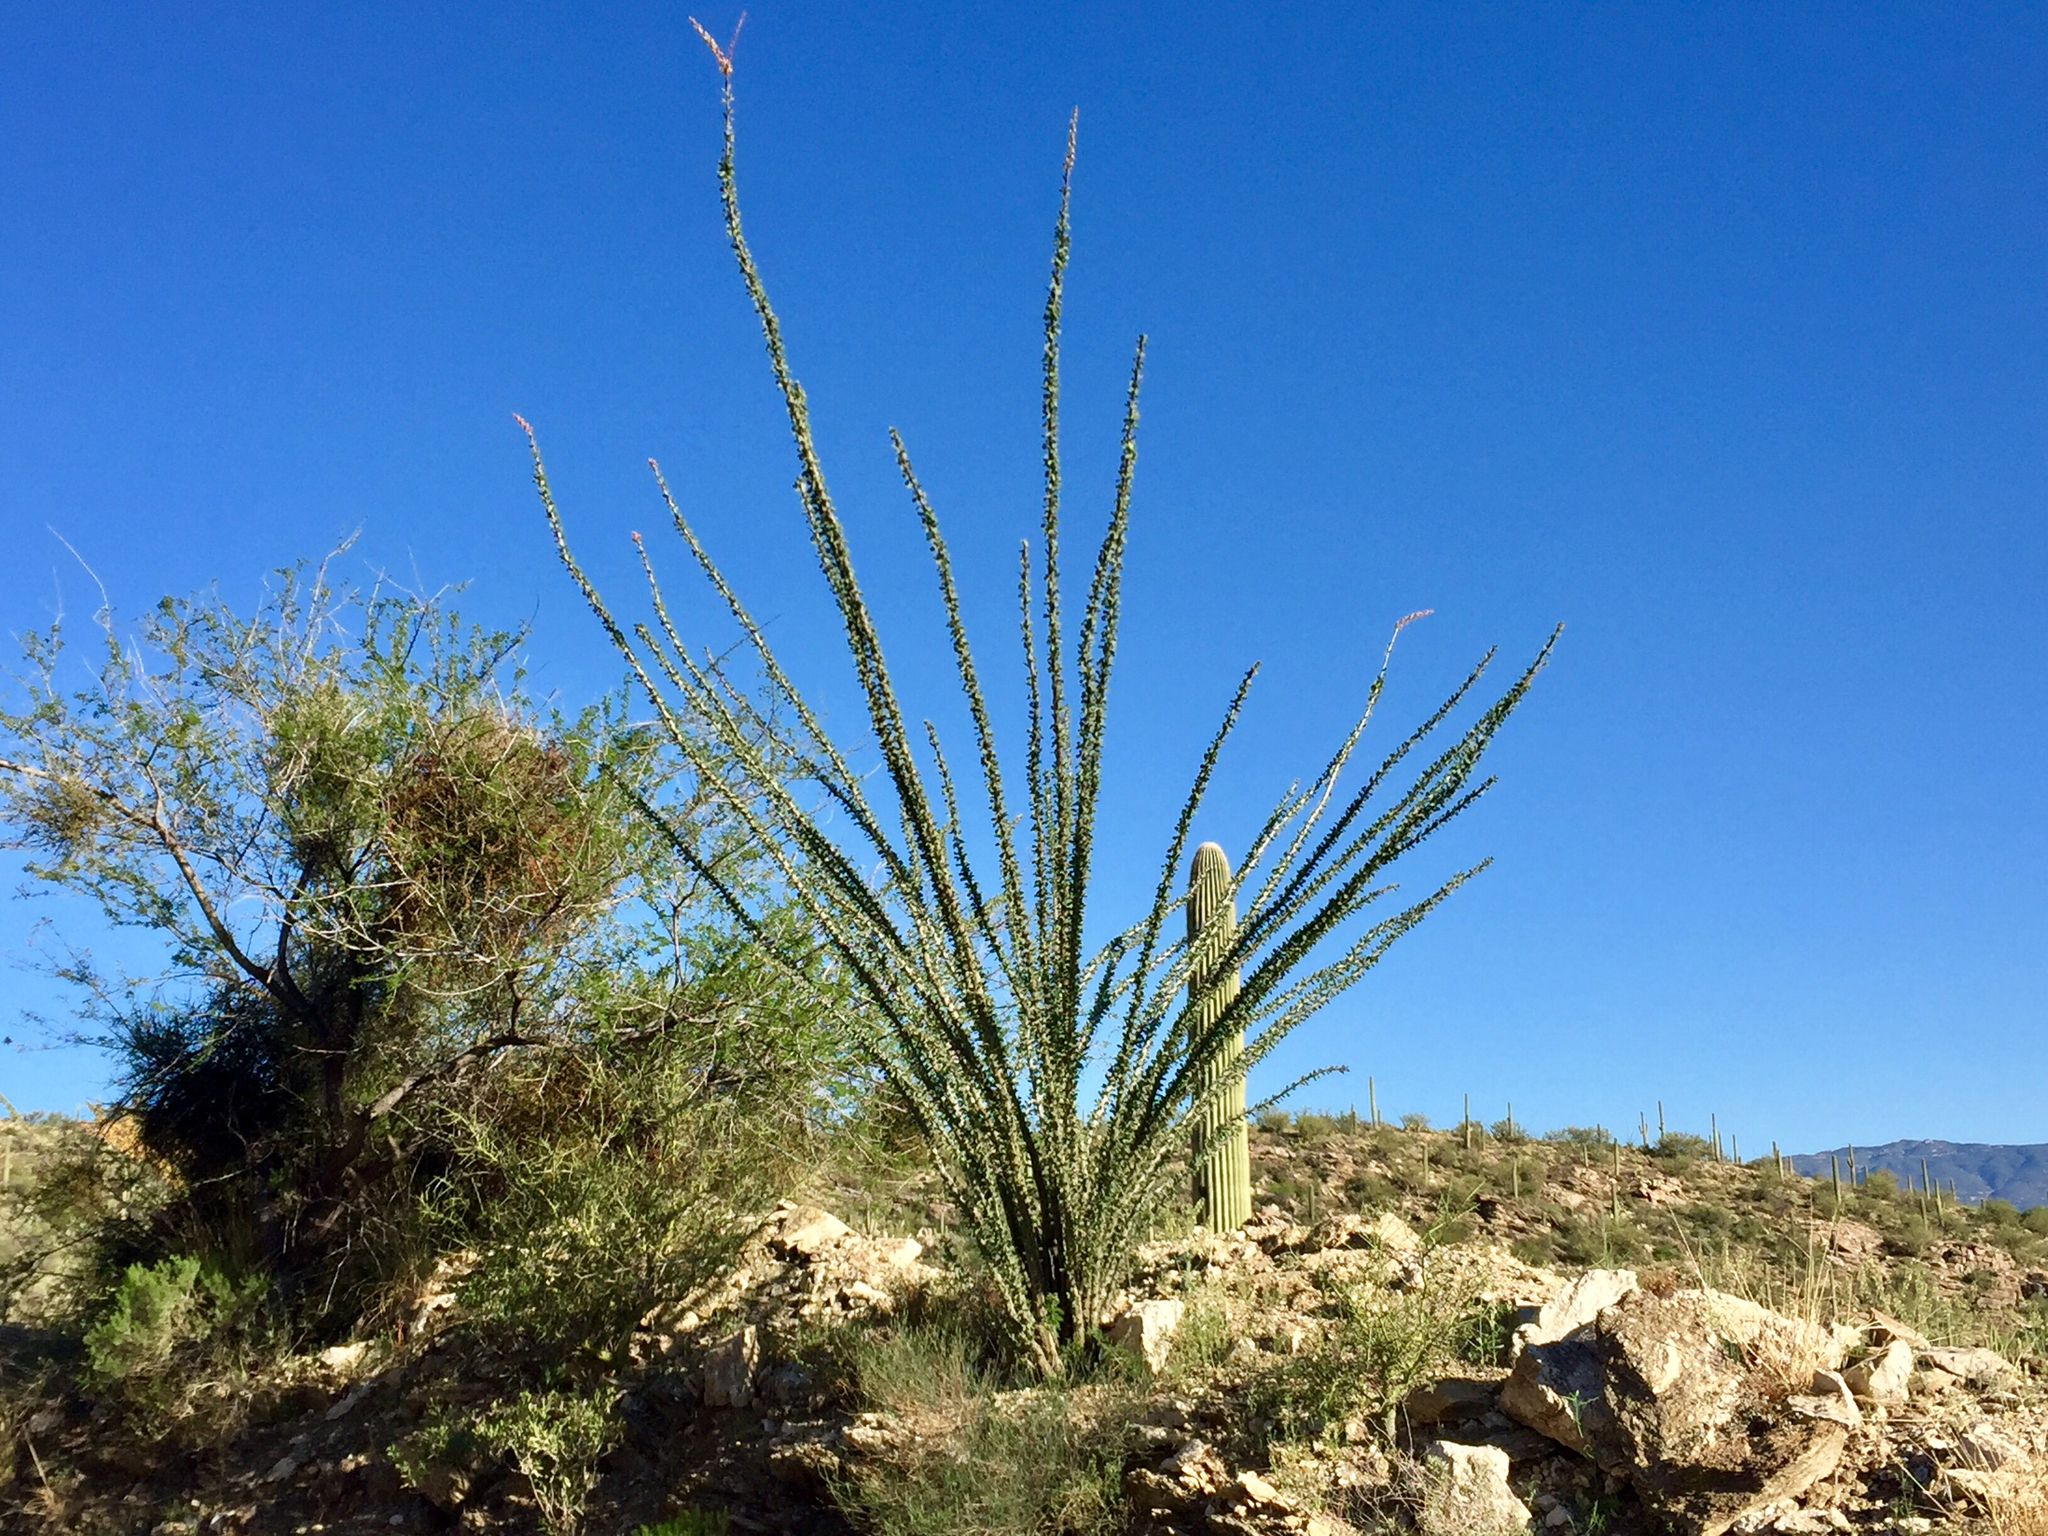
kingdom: Plantae
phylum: Tracheophyta
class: Magnoliopsida
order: Ericales
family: Fouquieriaceae
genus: Fouquieria
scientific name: Fouquieria splendens
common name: Vine-cactus
